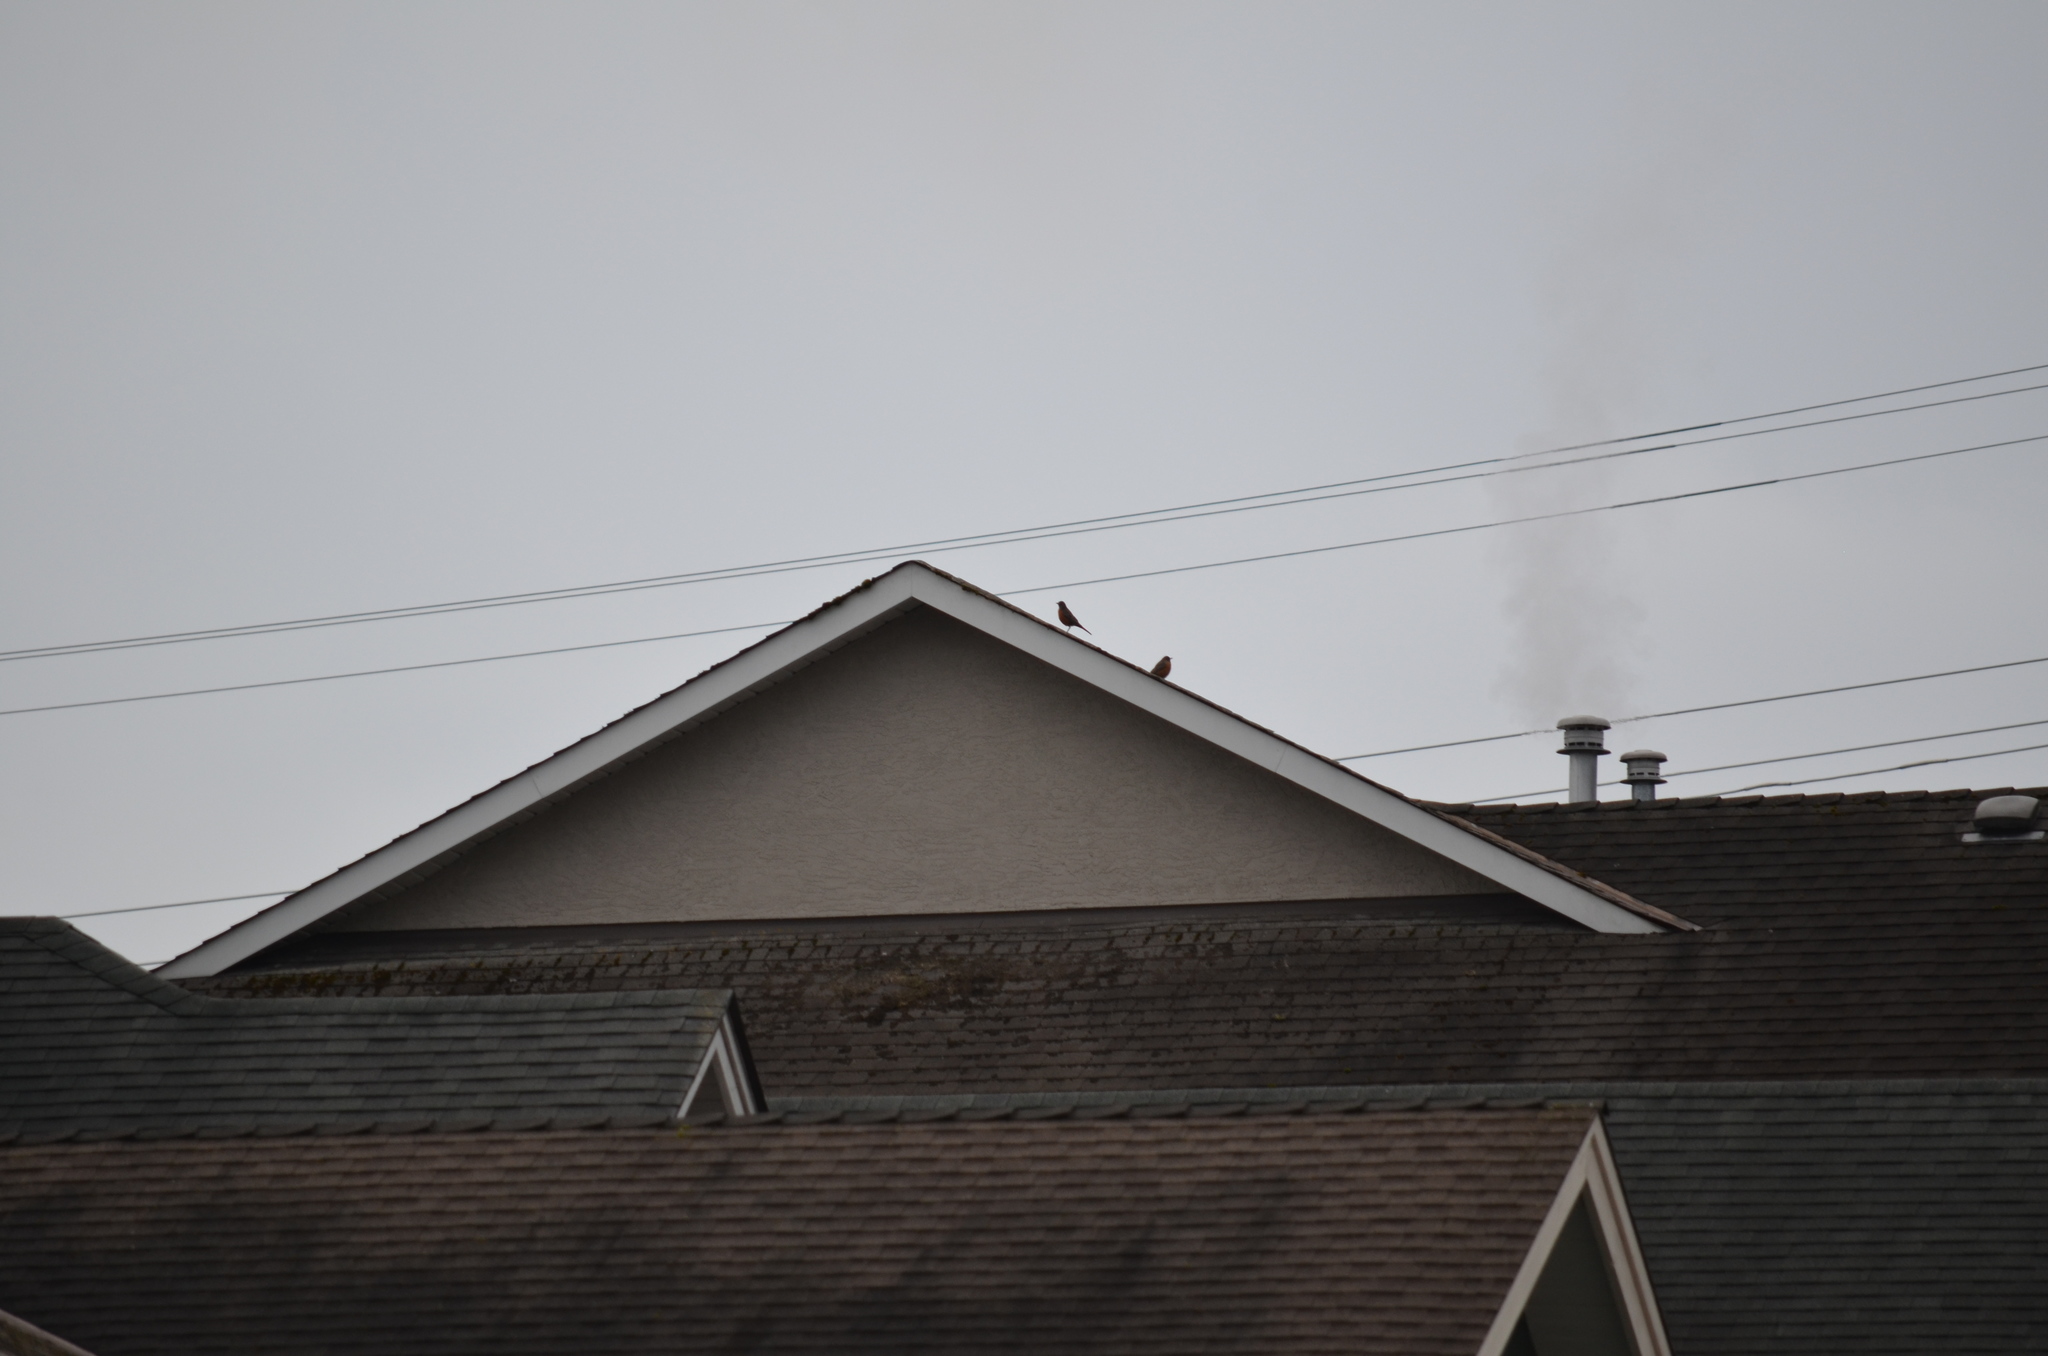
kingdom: Animalia
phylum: Chordata
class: Aves
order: Passeriformes
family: Turdidae
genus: Turdus
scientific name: Turdus migratorius
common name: American robin
